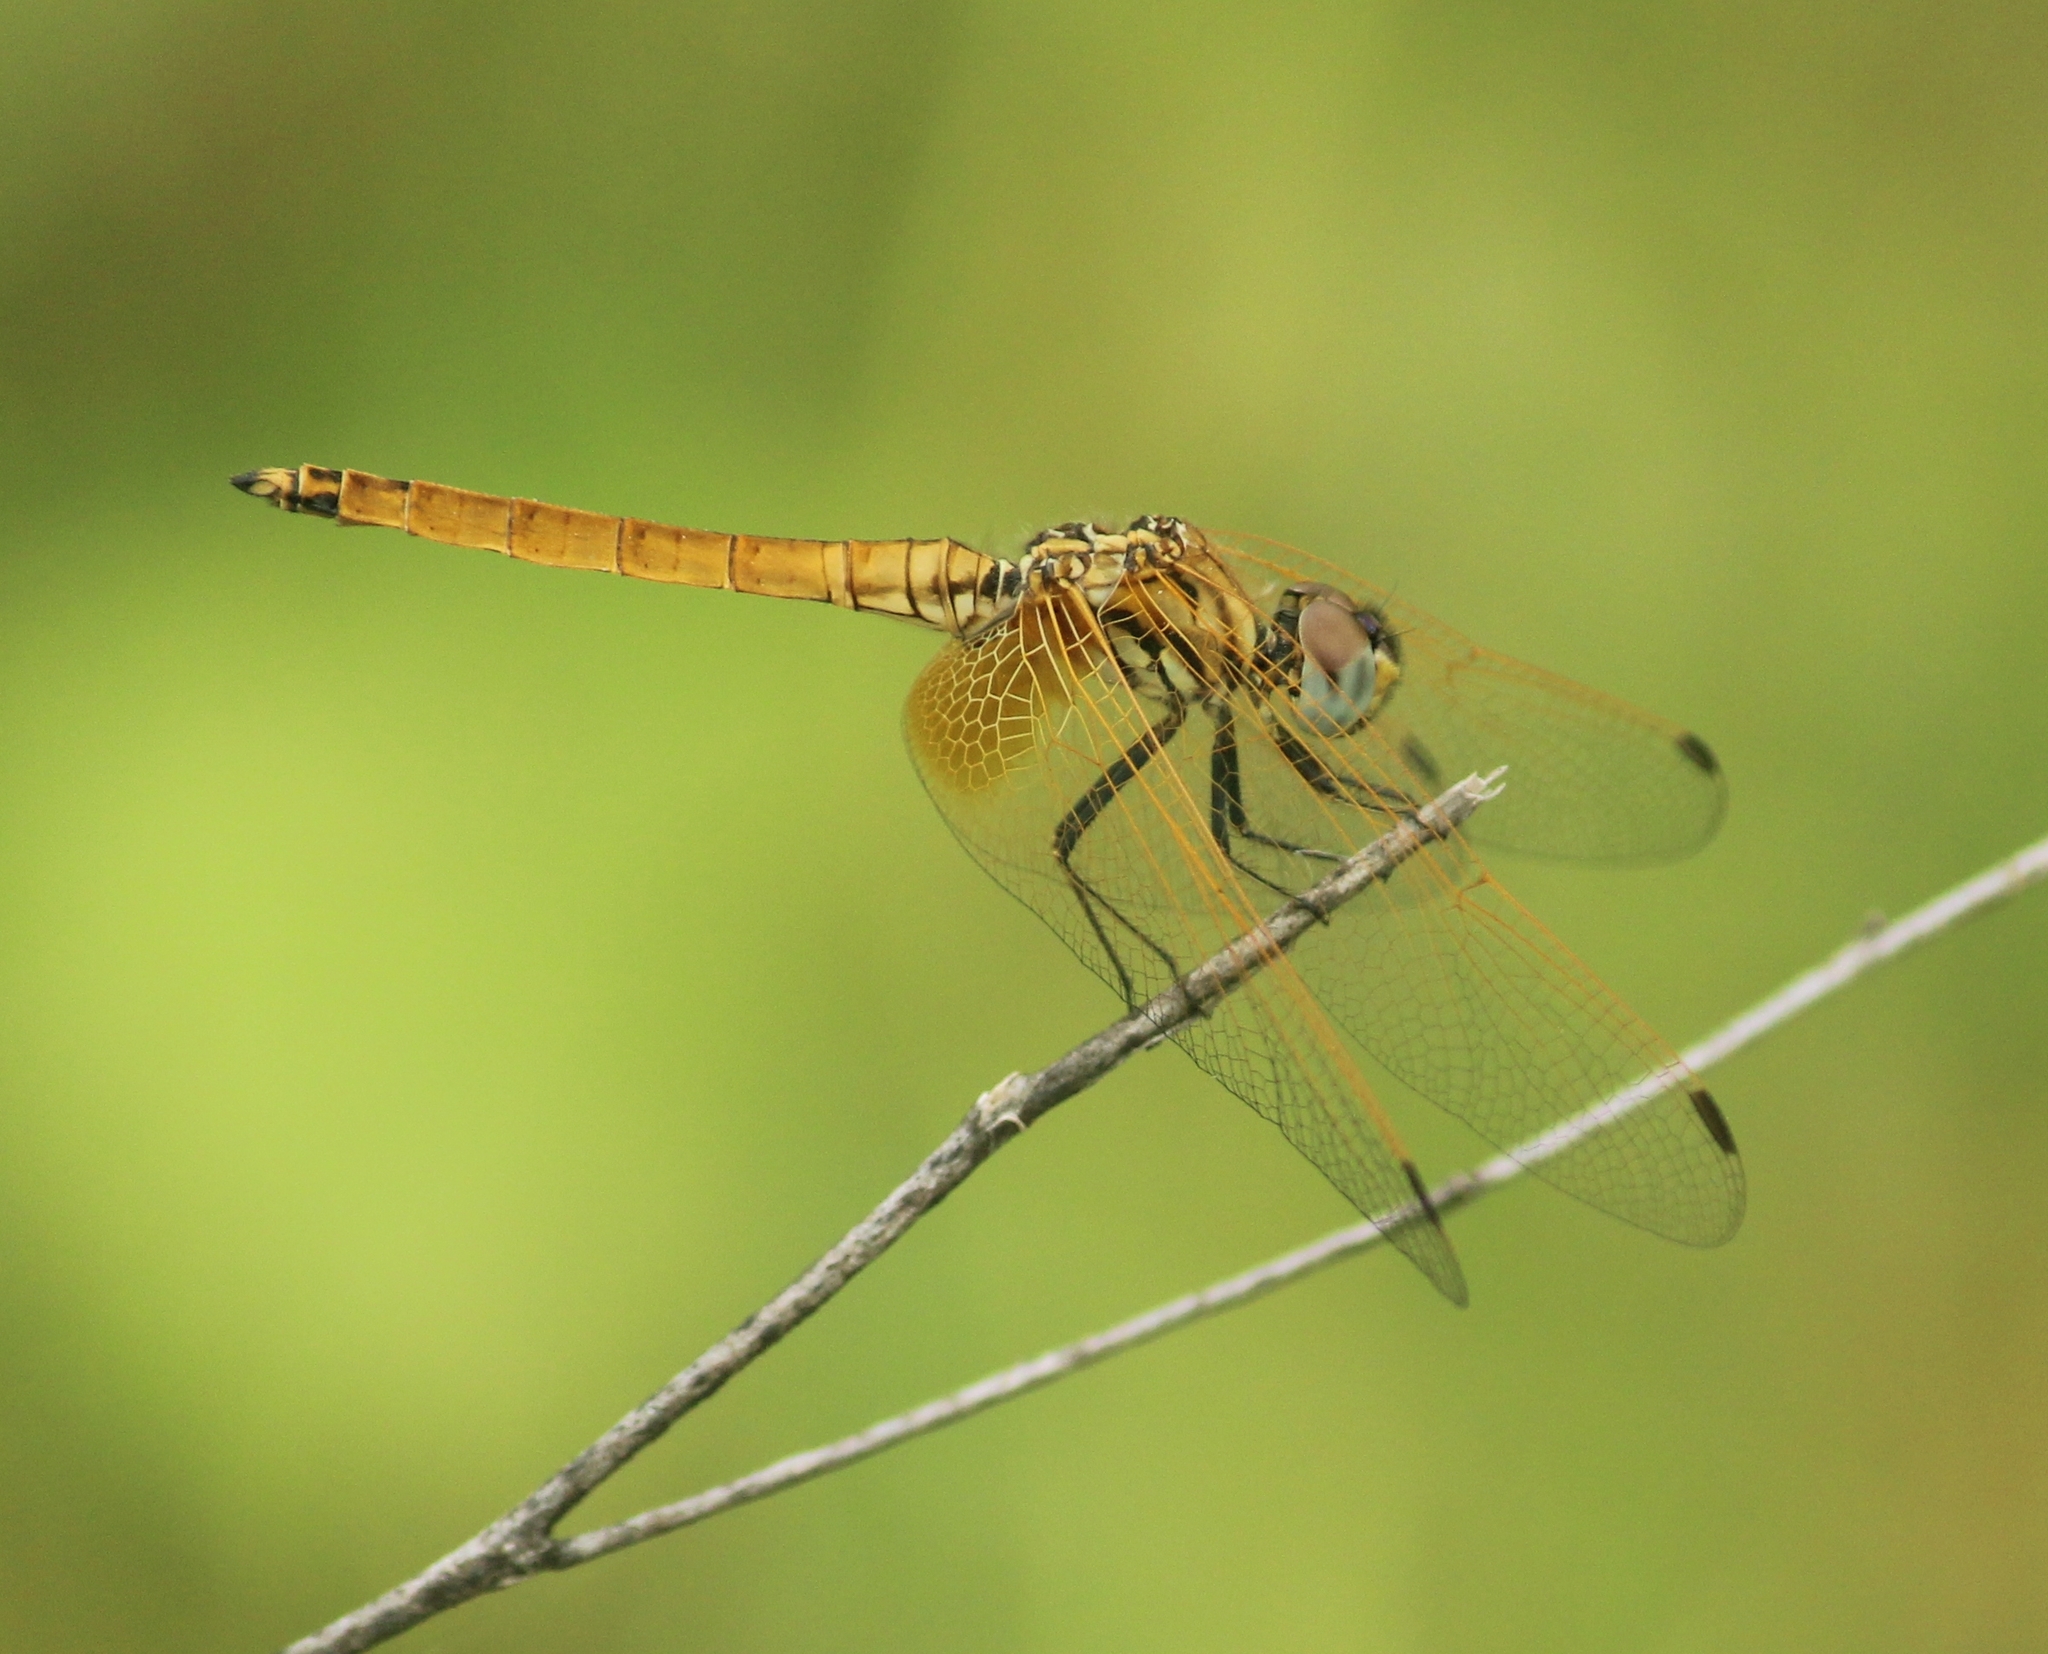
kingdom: Animalia
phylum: Arthropoda
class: Insecta
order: Odonata
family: Libellulidae
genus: Trithemis
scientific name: Trithemis aurora
